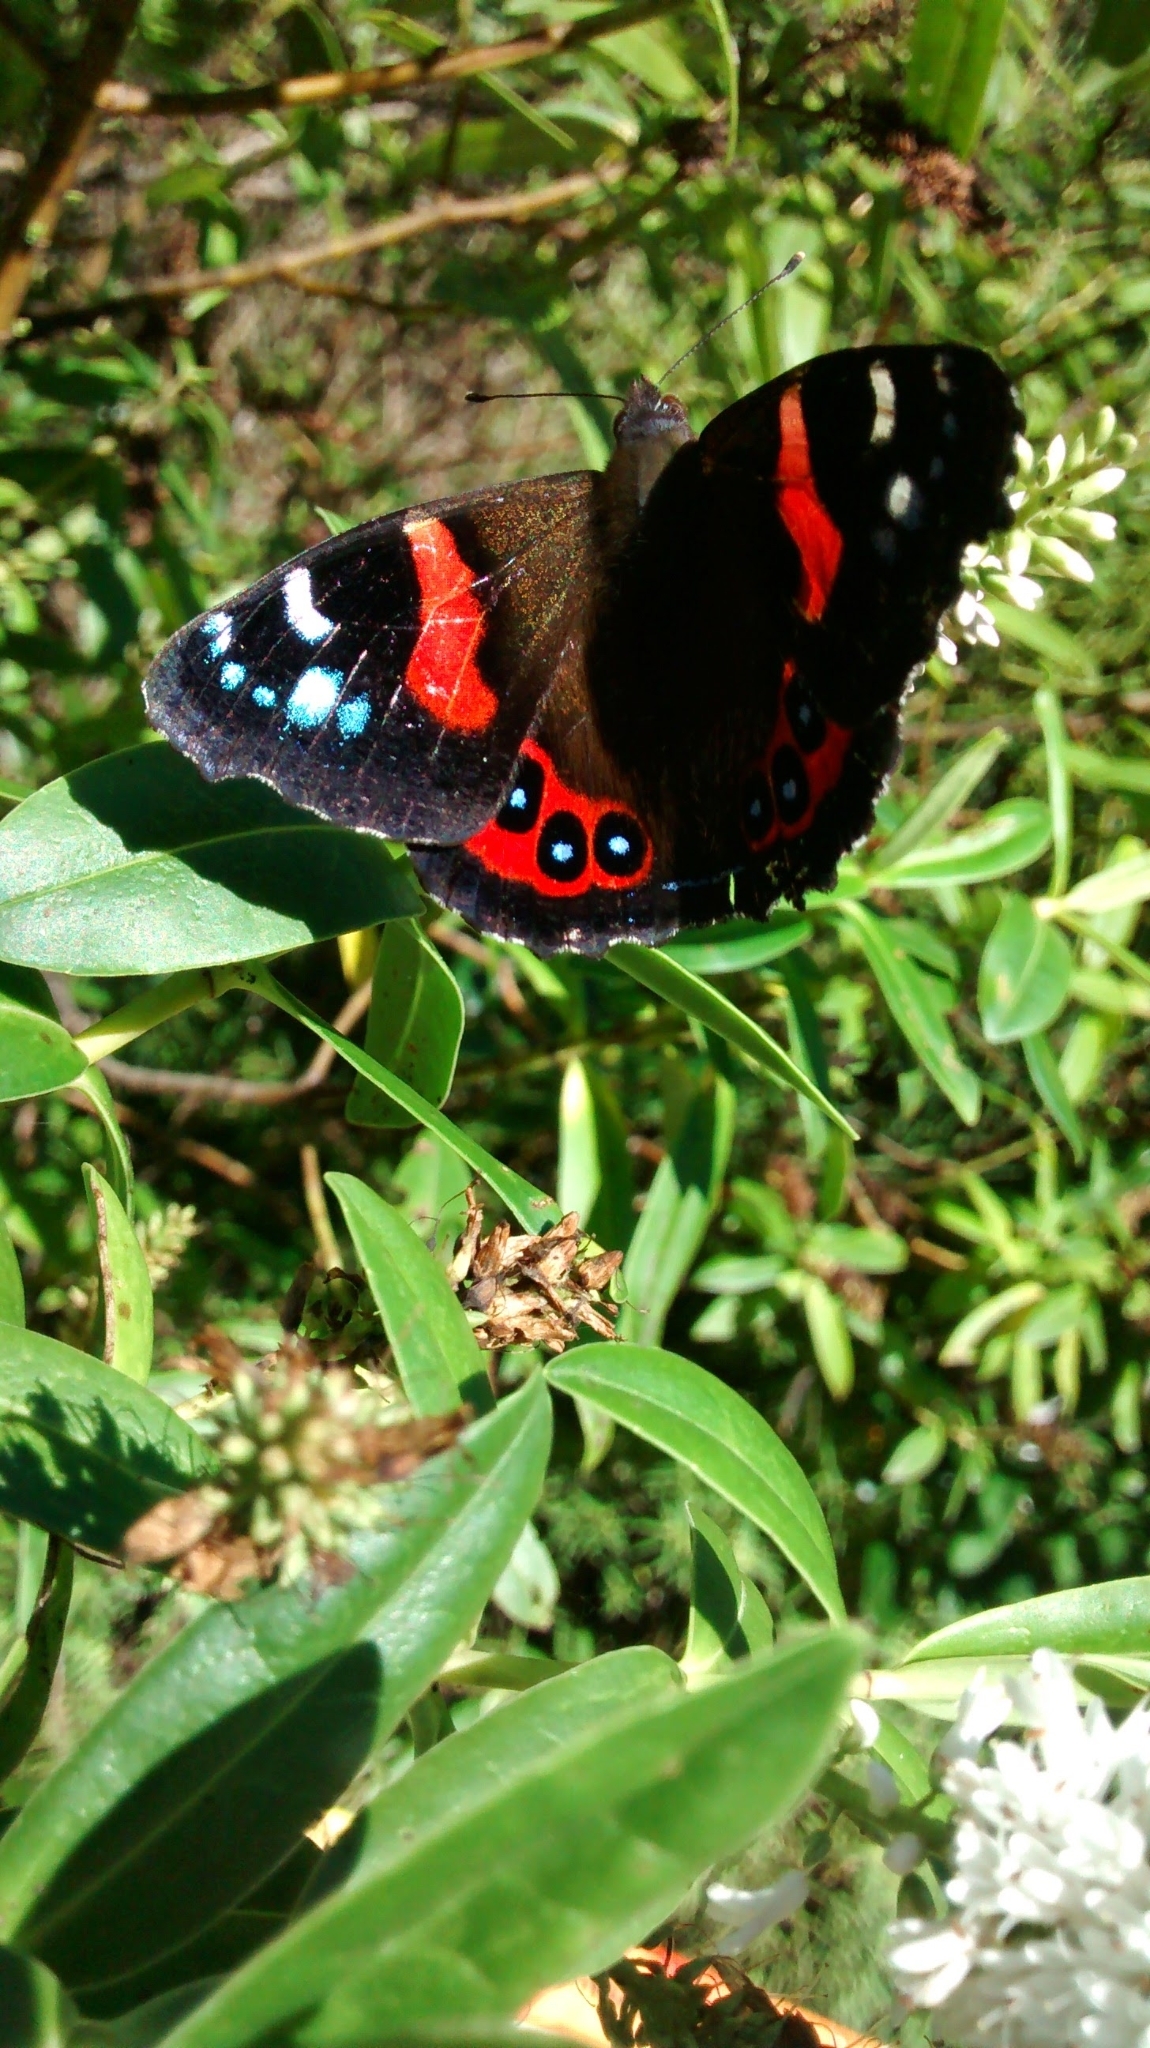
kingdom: Animalia
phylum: Arthropoda
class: Insecta
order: Lepidoptera
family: Nymphalidae
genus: Vanessa
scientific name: Vanessa gonerilla
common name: New zealand red admiral
